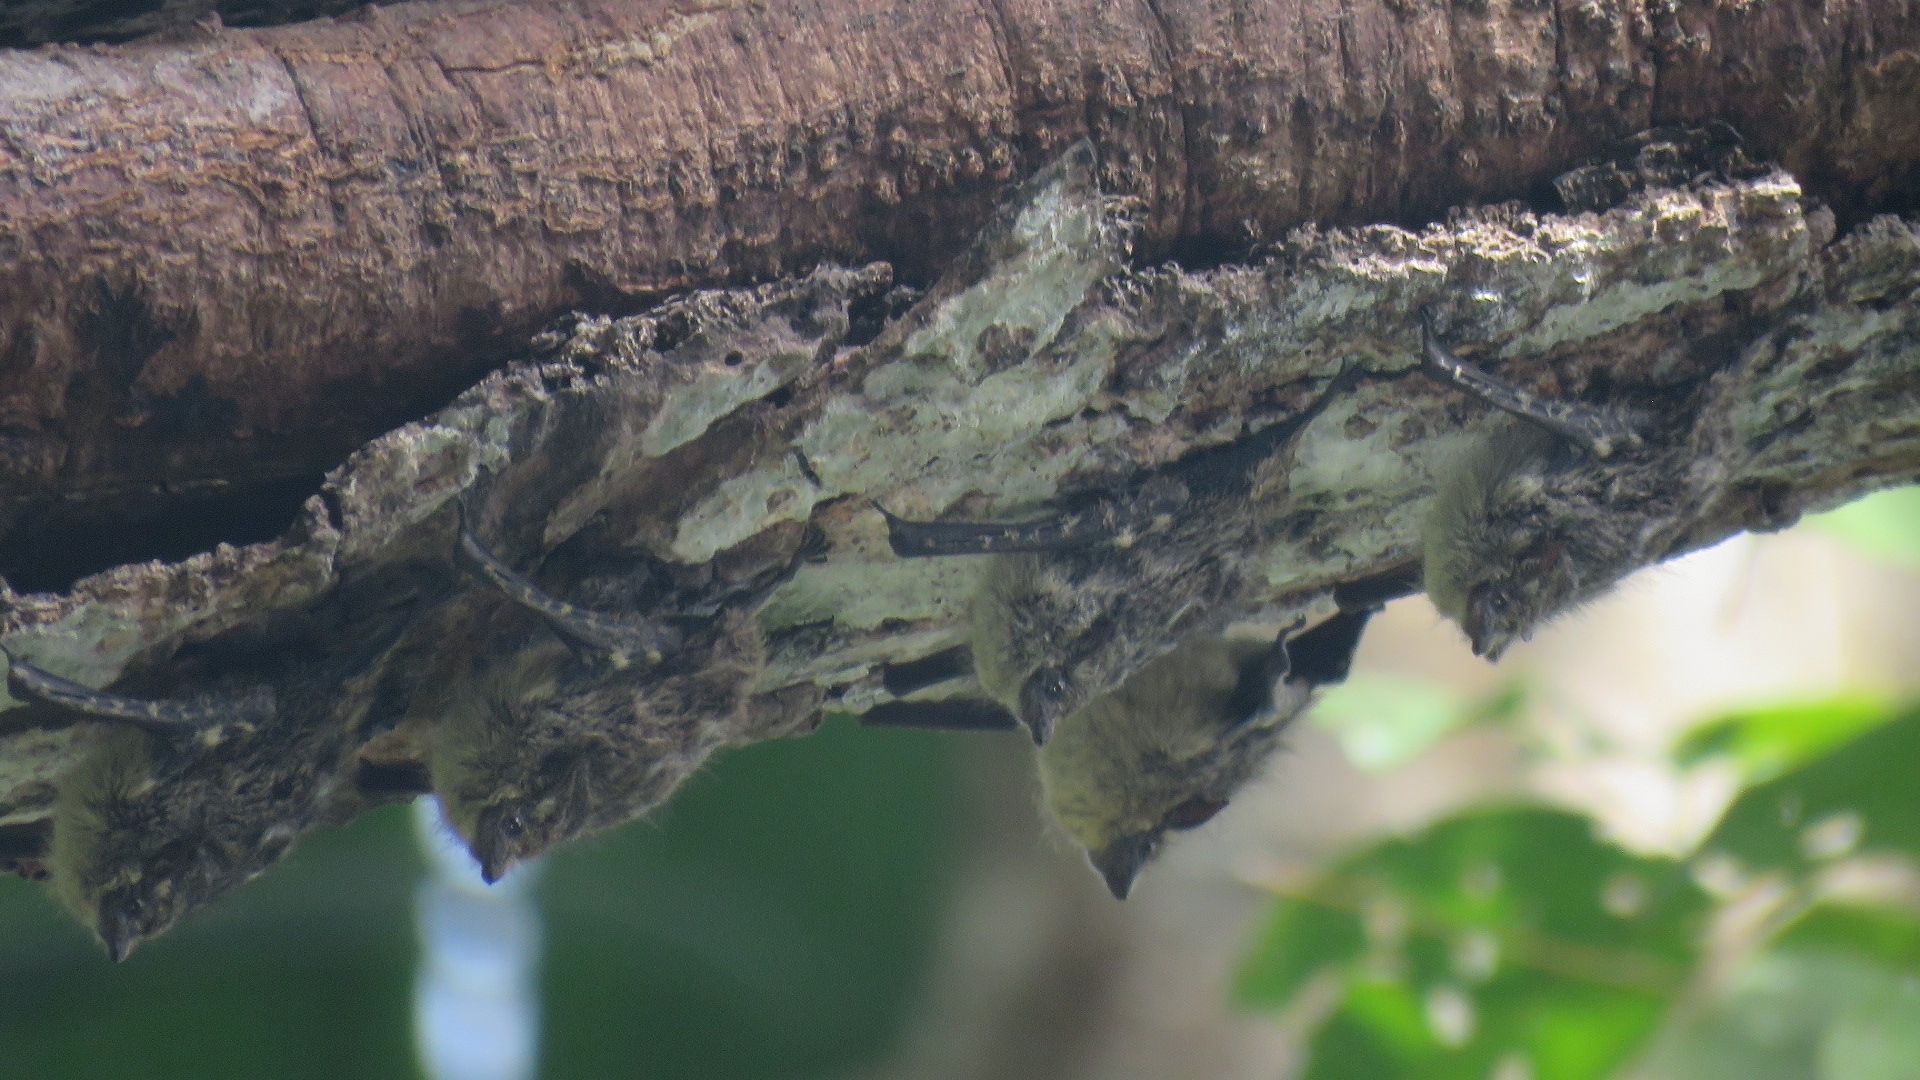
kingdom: Animalia
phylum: Chordata
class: Mammalia
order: Chiroptera
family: Emballonuridae
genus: Rhynchonycteris
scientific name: Rhynchonycteris naso
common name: Proboscis bat
